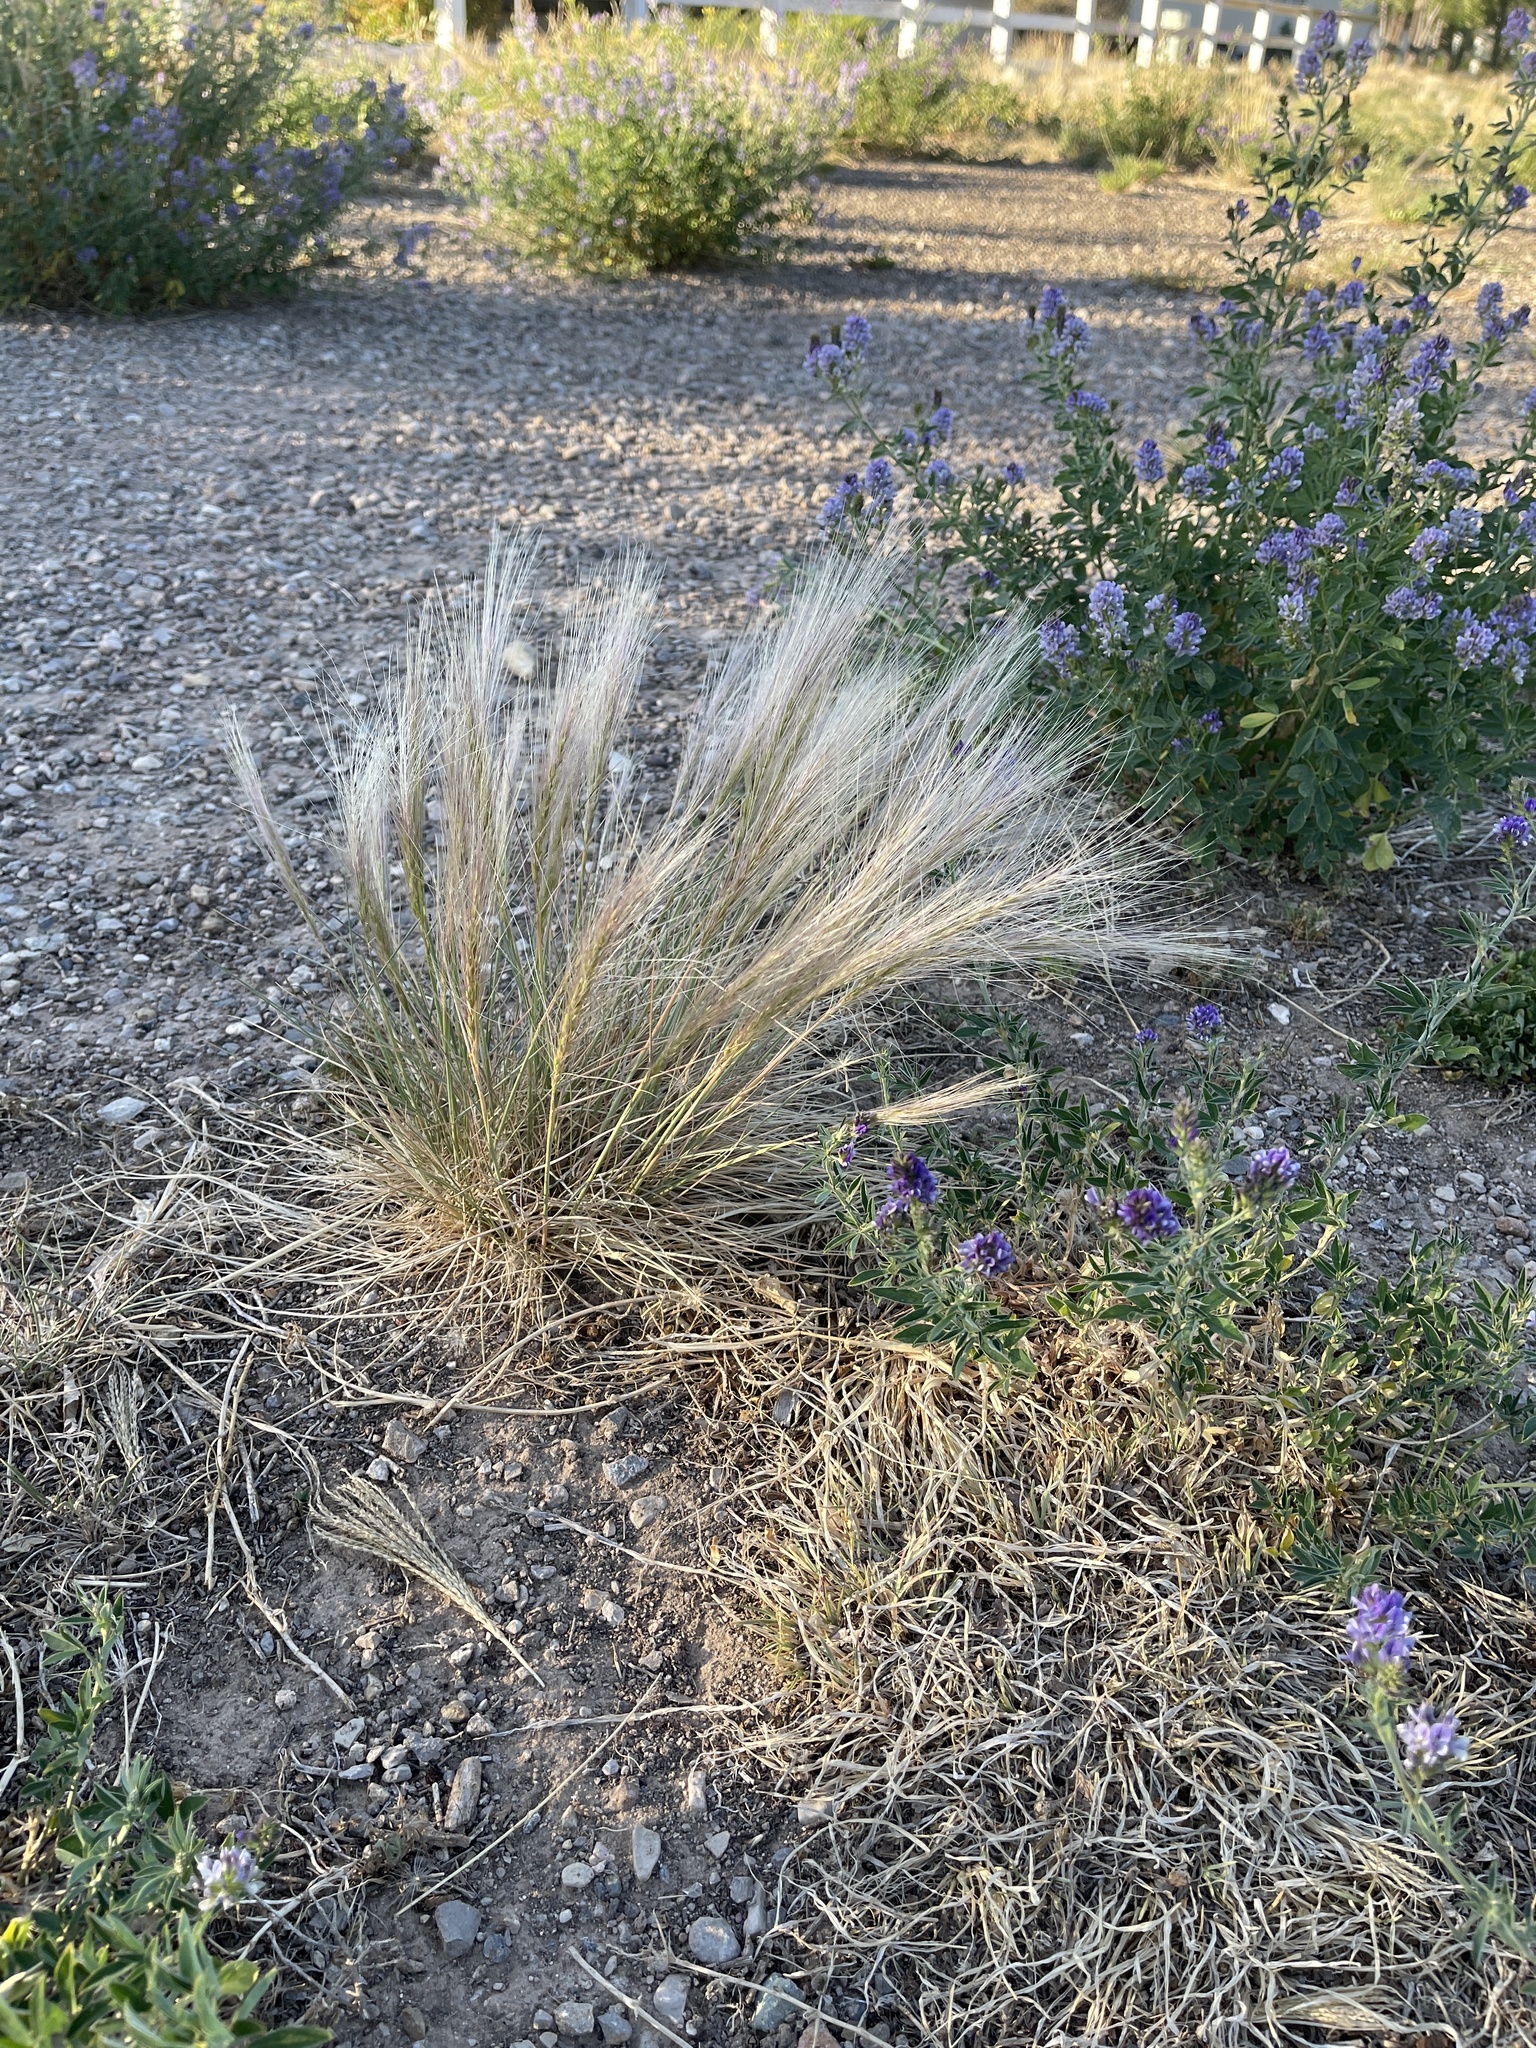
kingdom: Plantae
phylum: Tracheophyta
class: Liliopsida
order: Poales
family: Poaceae
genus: Hordeum
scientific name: Hordeum jubatum
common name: Foxtail barley
